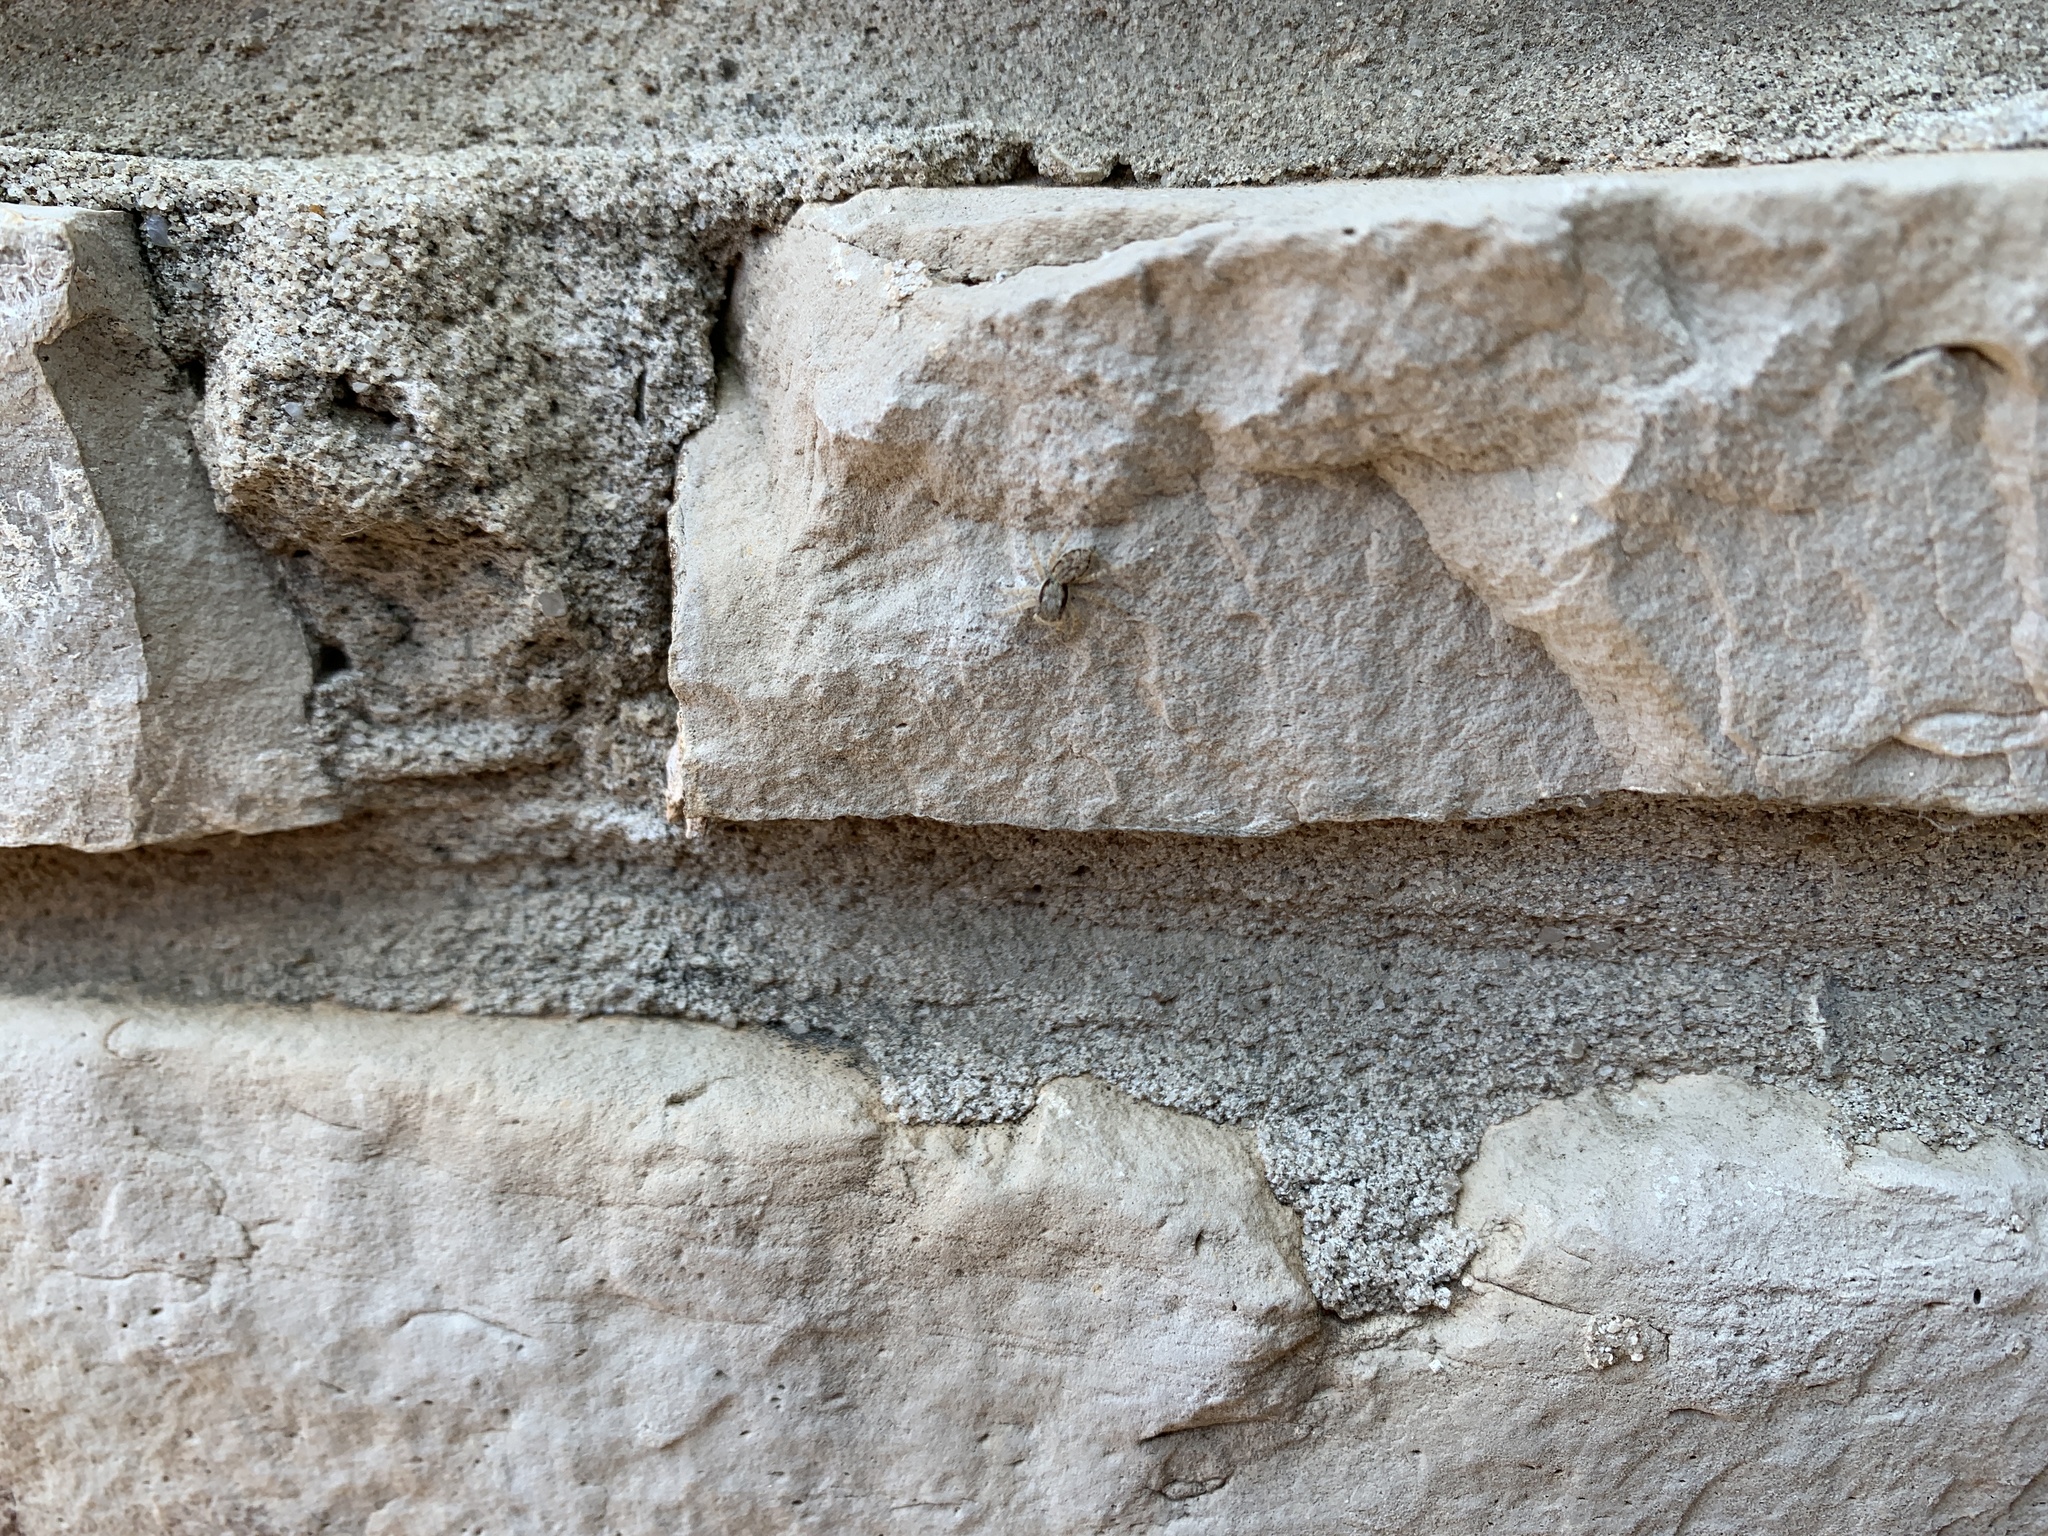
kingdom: Animalia
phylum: Arthropoda
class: Arachnida
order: Araneae
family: Salticidae
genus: Menemerus
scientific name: Menemerus bivittatus
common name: Gray wall jumper
